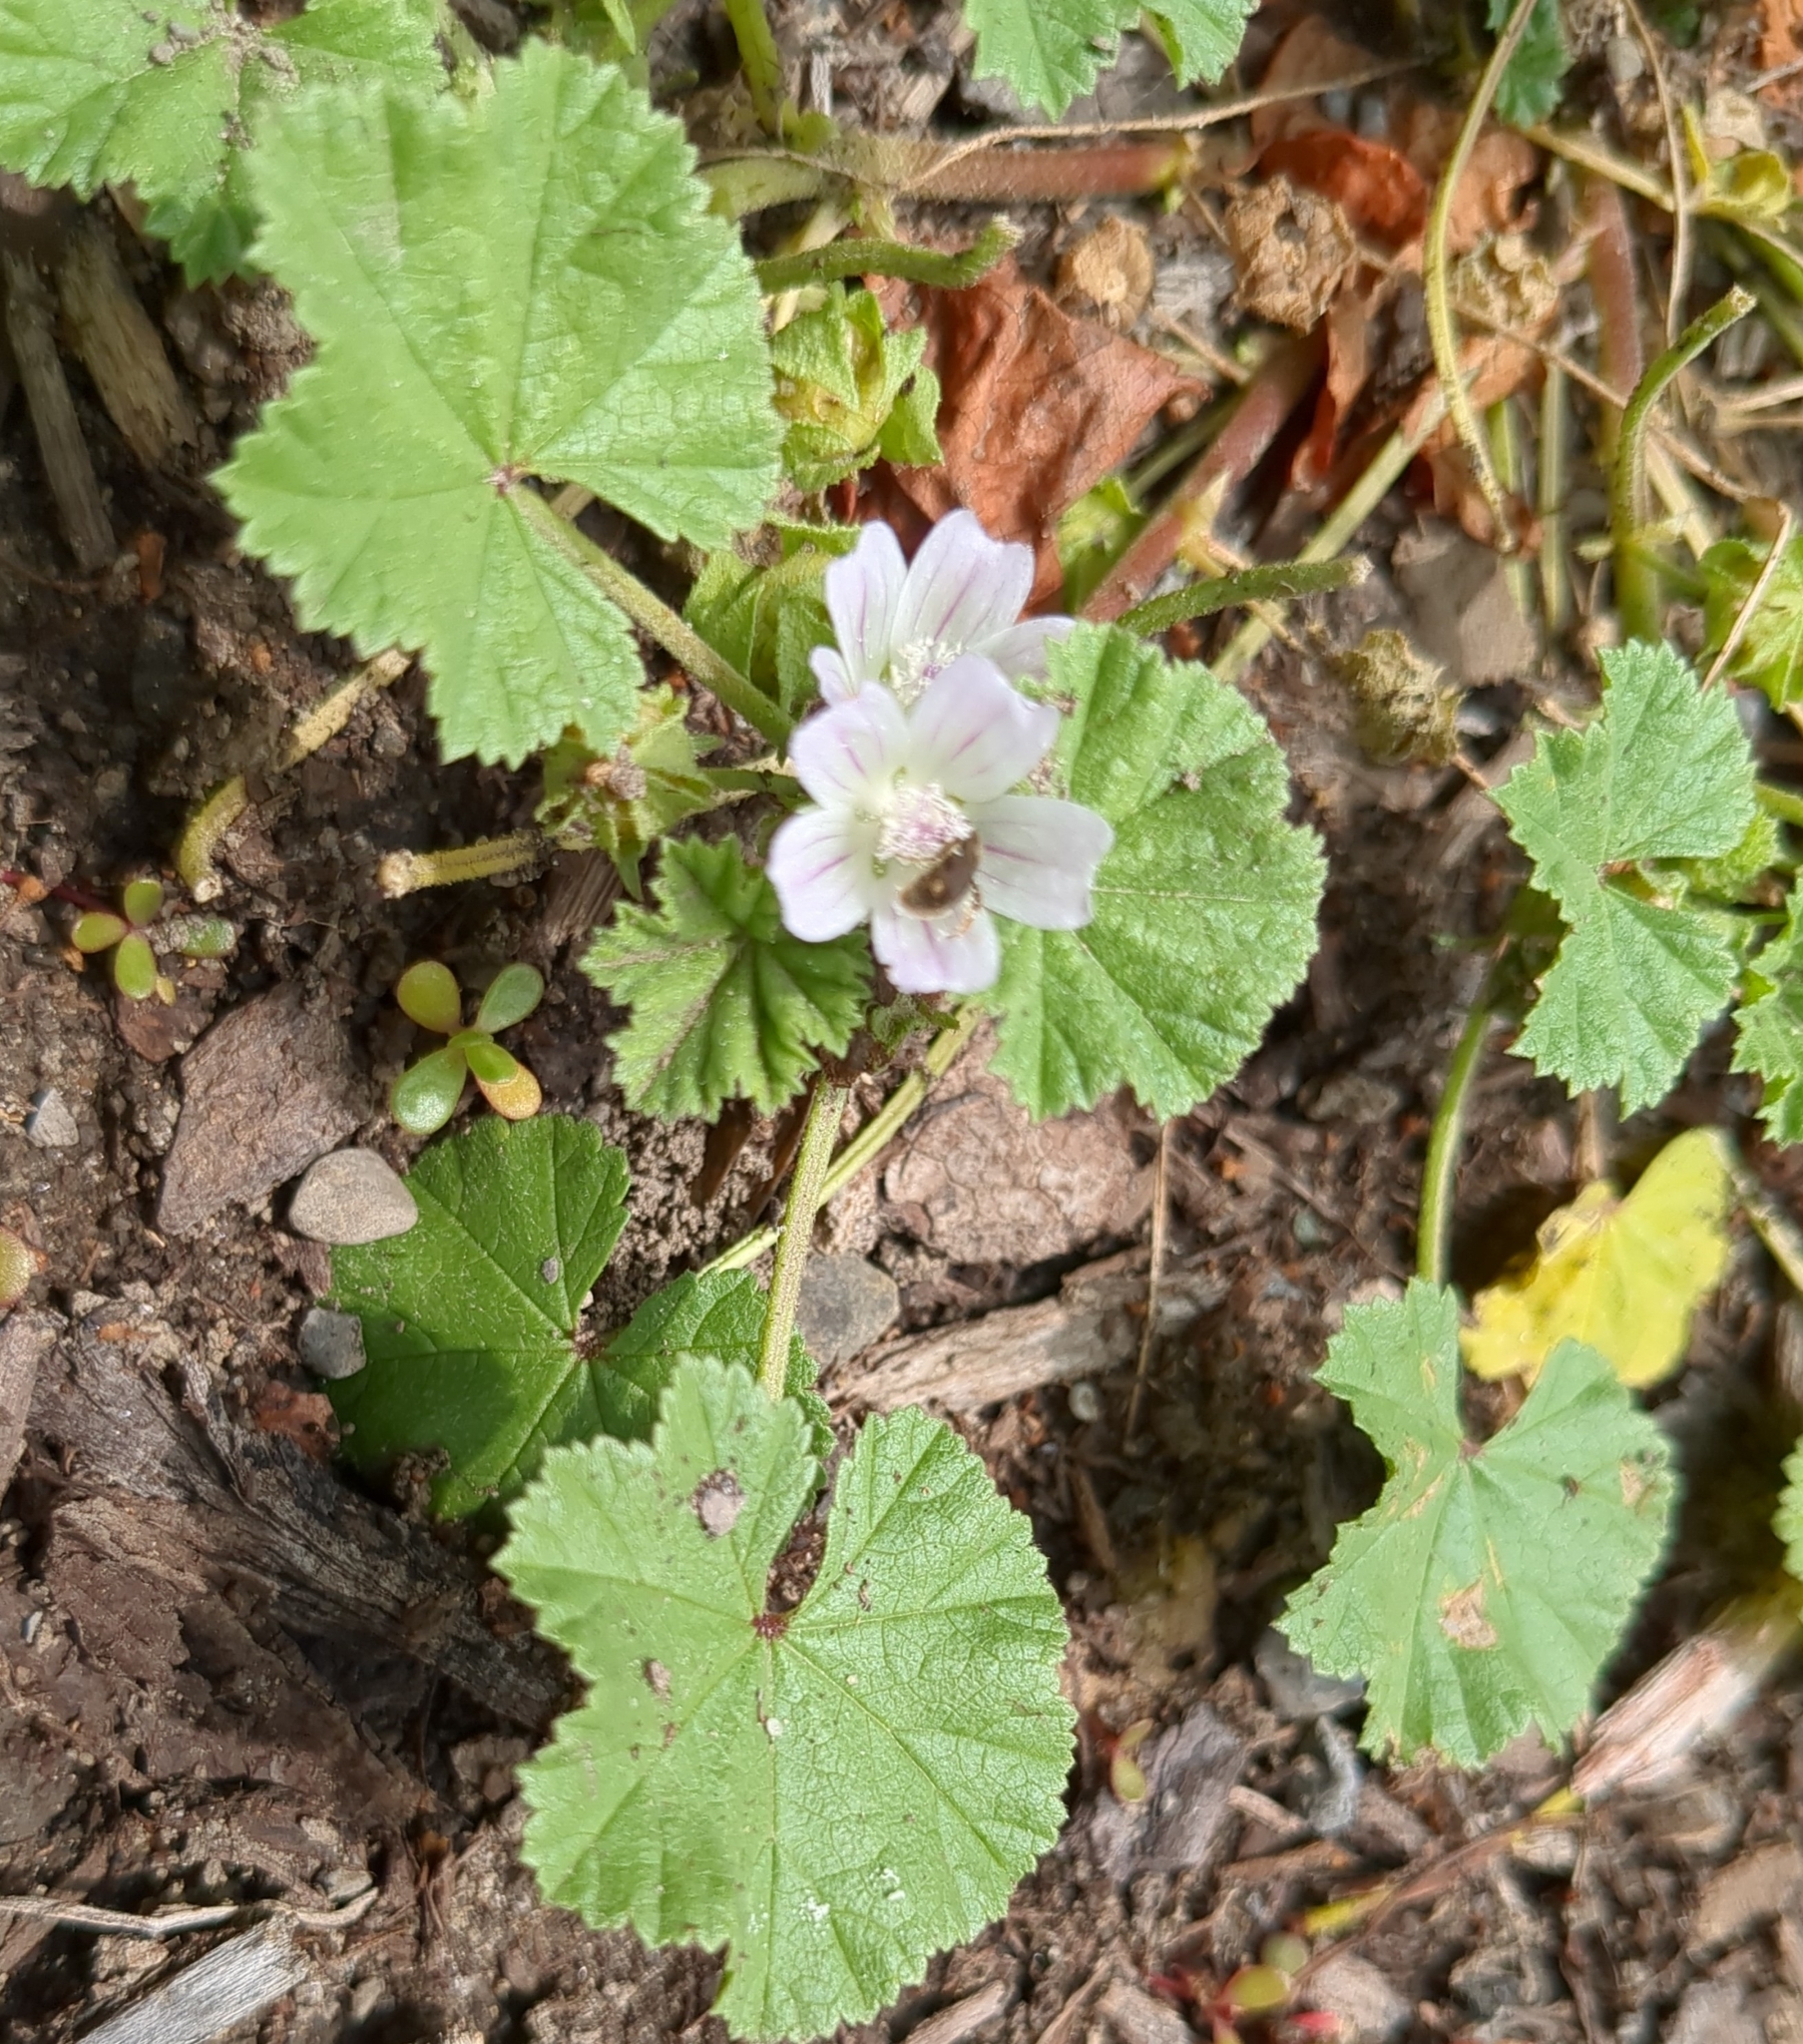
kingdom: Plantae
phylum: Tracheophyta
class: Magnoliopsida
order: Malvales
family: Malvaceae
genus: Malva
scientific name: Malva neglecta
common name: Common mallow
